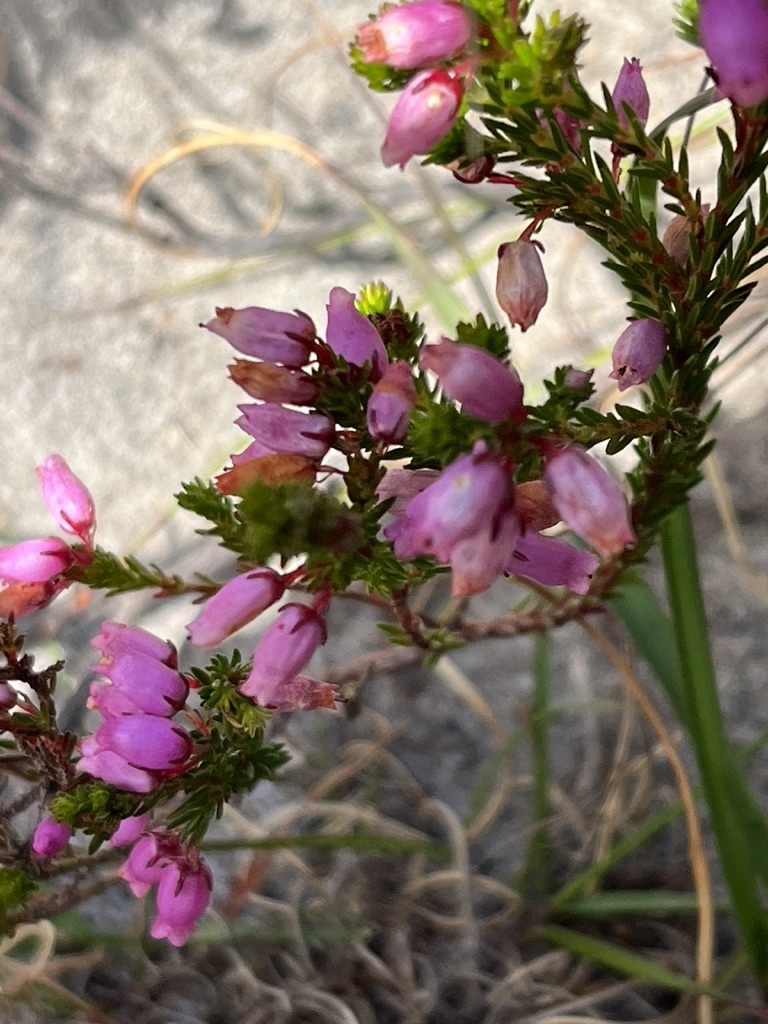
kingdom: Plantae
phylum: Tracheophyta
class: Magnoliopsida
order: Ericales
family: Ericaceae
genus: Erica
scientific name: Erica laeta
